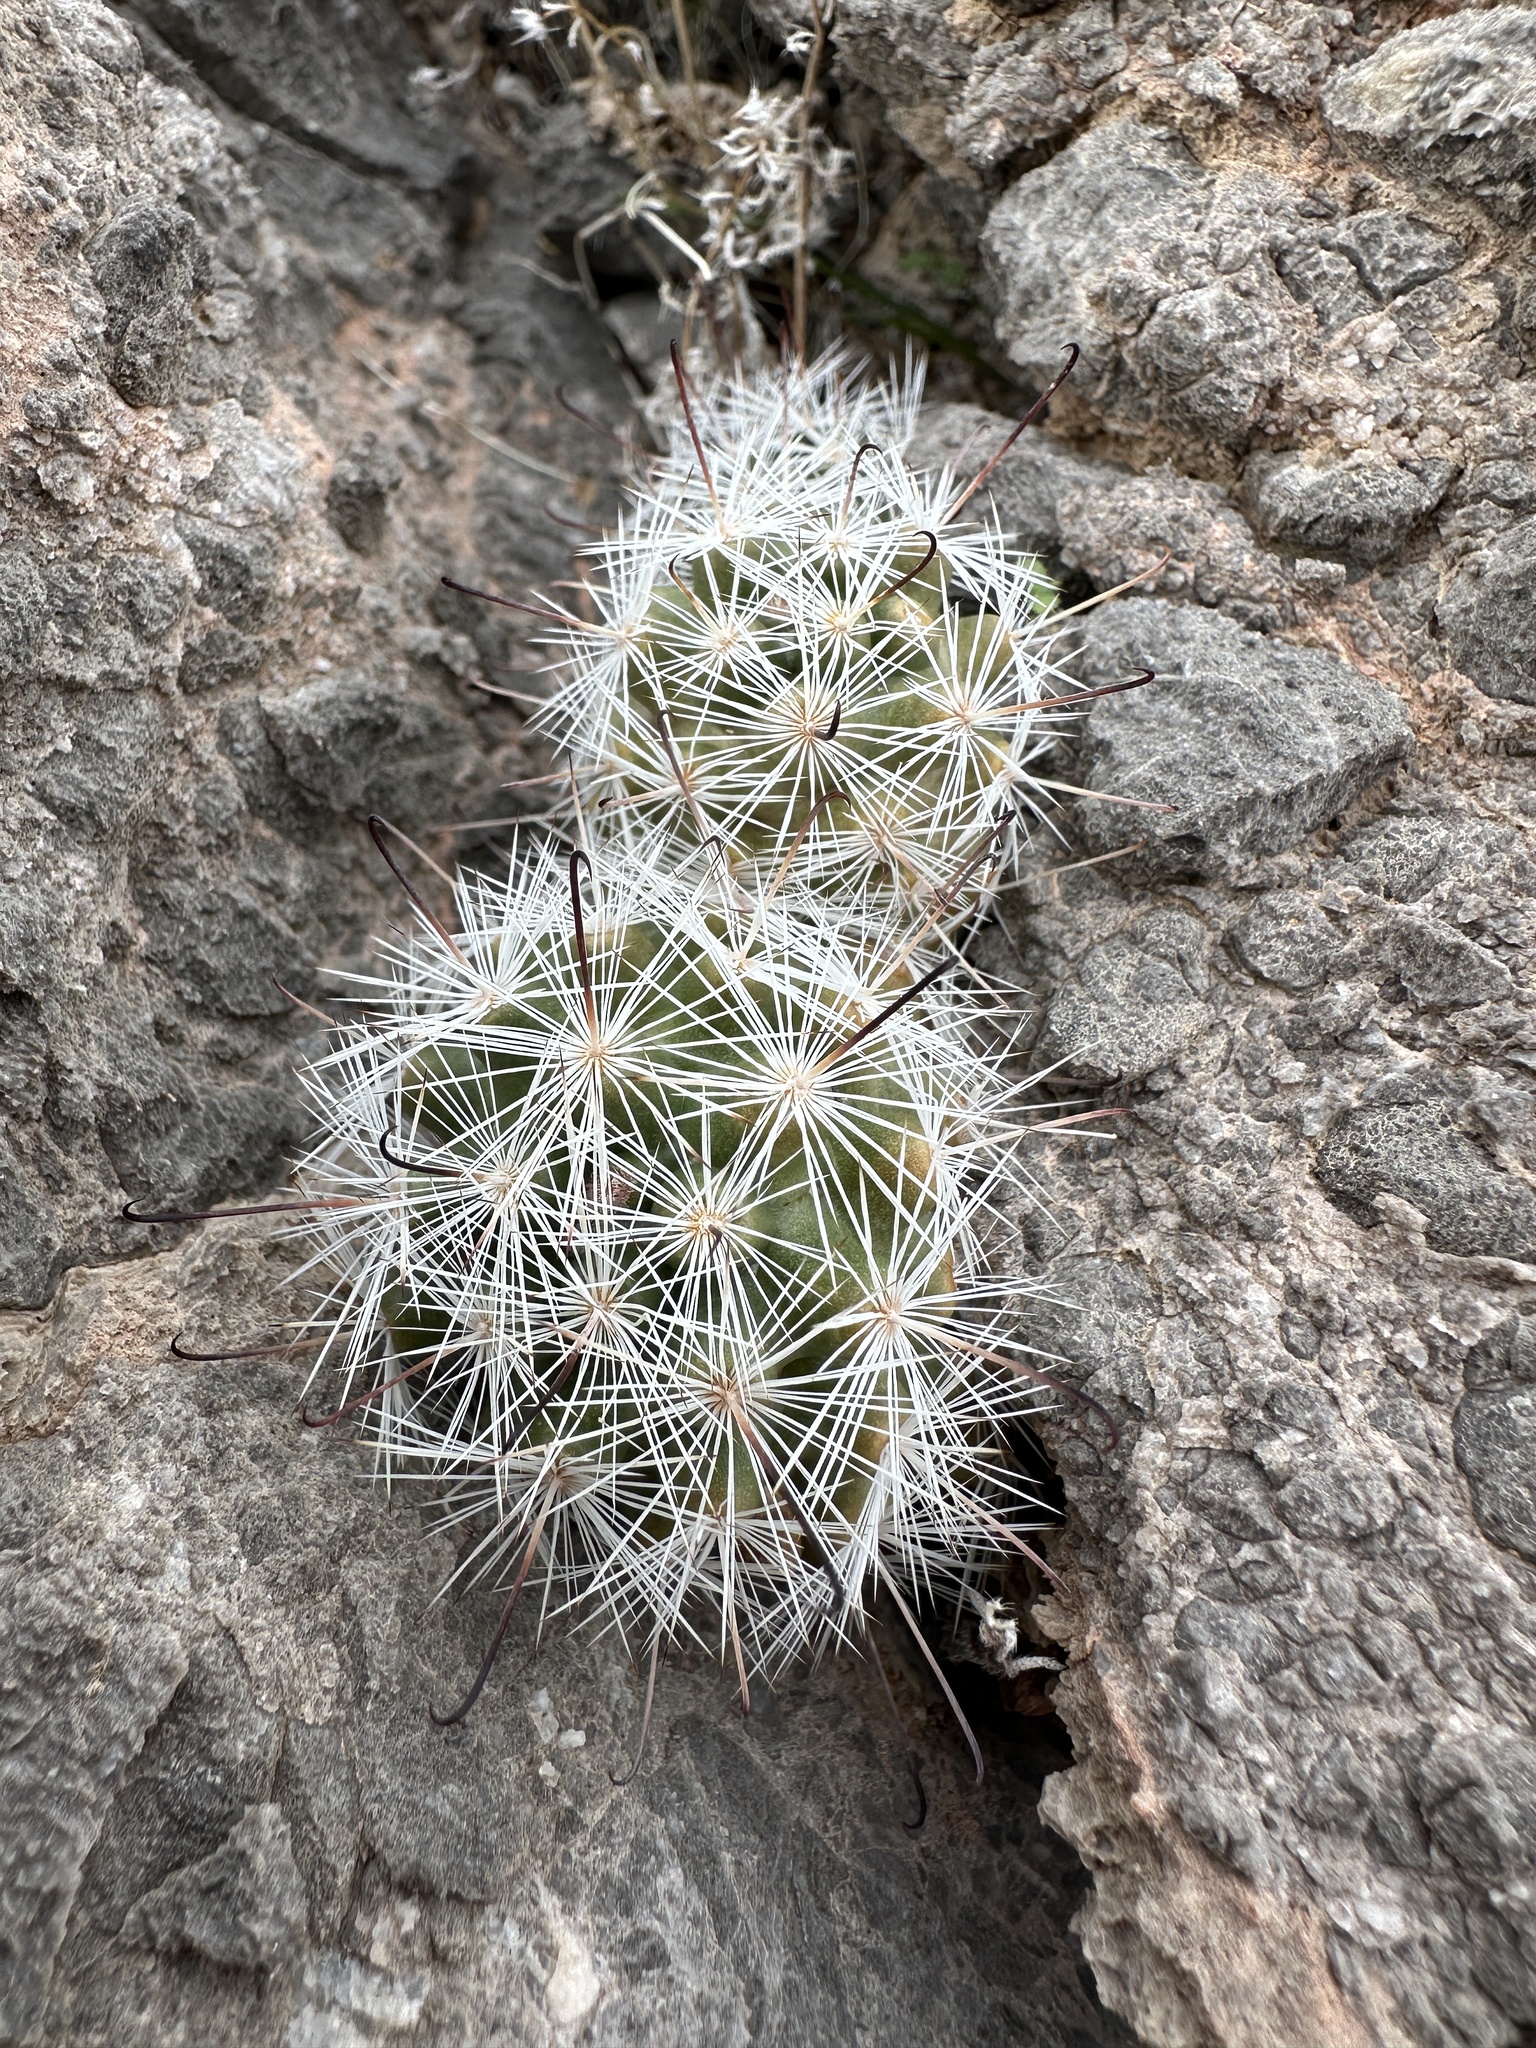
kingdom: Plantae
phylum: Tracheophyta
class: Magnoliopsida
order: Caryophyllales
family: Cactaceae
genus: Cochemiea
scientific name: Cochemiea tetrancistra
